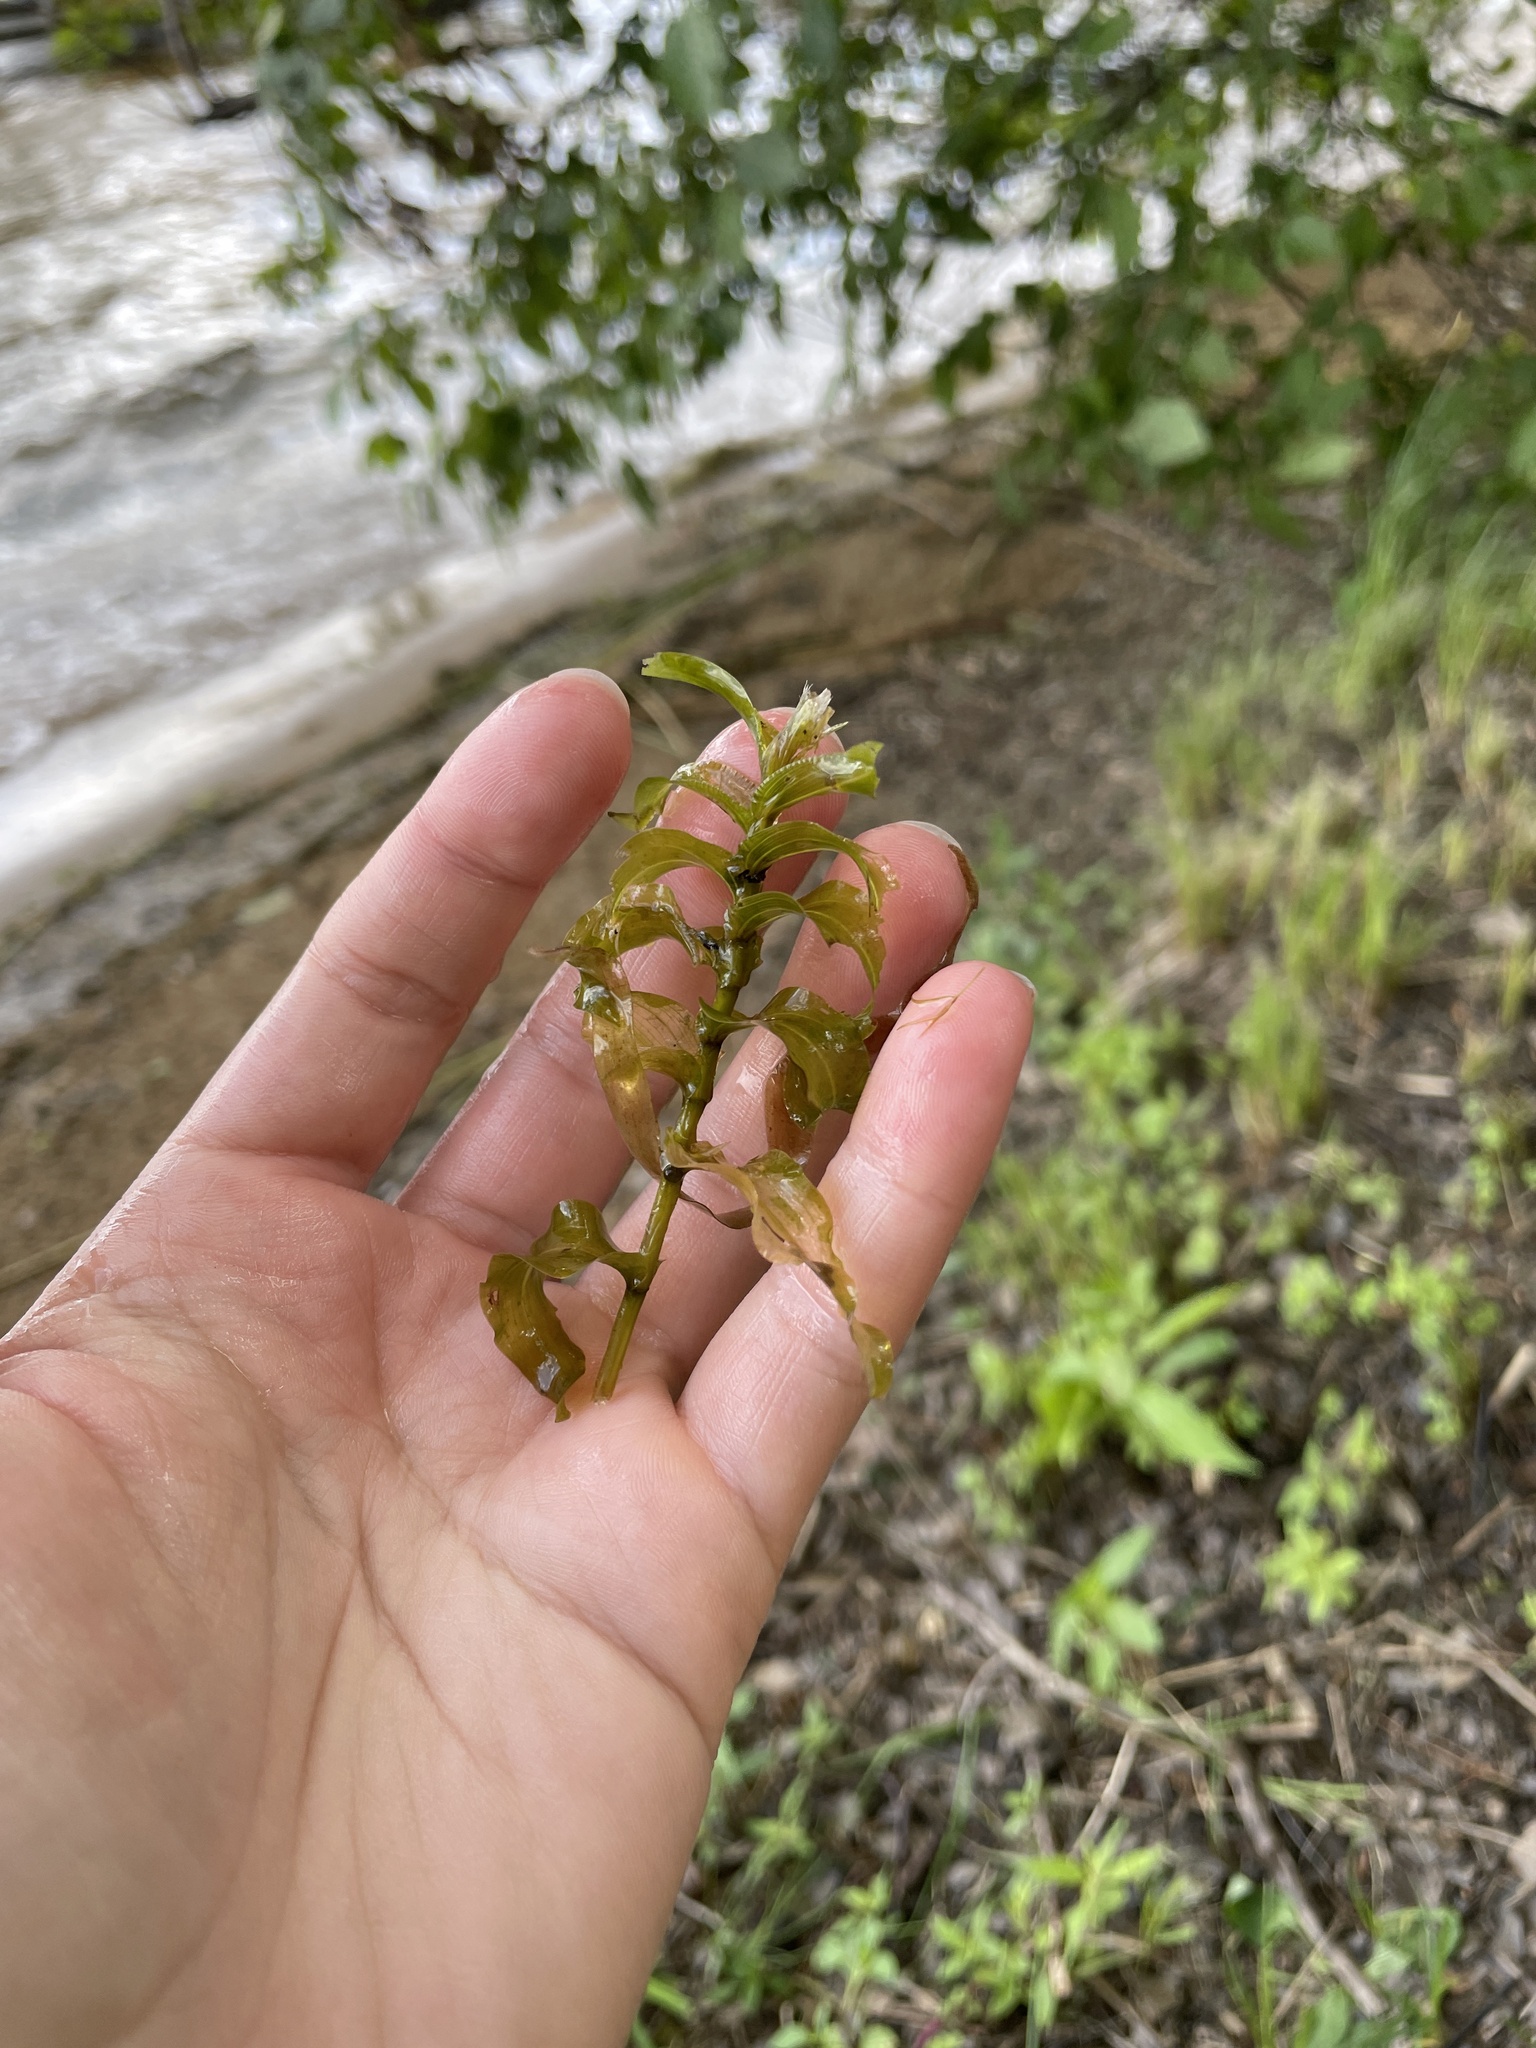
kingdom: Plantae
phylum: Tracheophyta
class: Liliopsida
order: Alismatales
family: Potamogetonaceae
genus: Potamogeton
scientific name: Potamogeton richardsonii
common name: Richardson's pondweed
